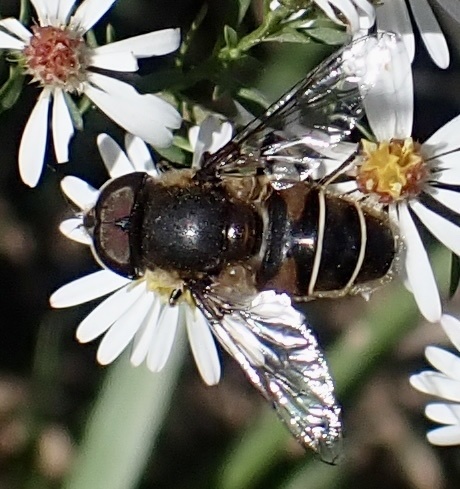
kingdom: Animalia
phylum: Arthropoda
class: Insecta
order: Diptera
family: Syrphidae
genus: Eristalis
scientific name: Eristalis dimidiata
